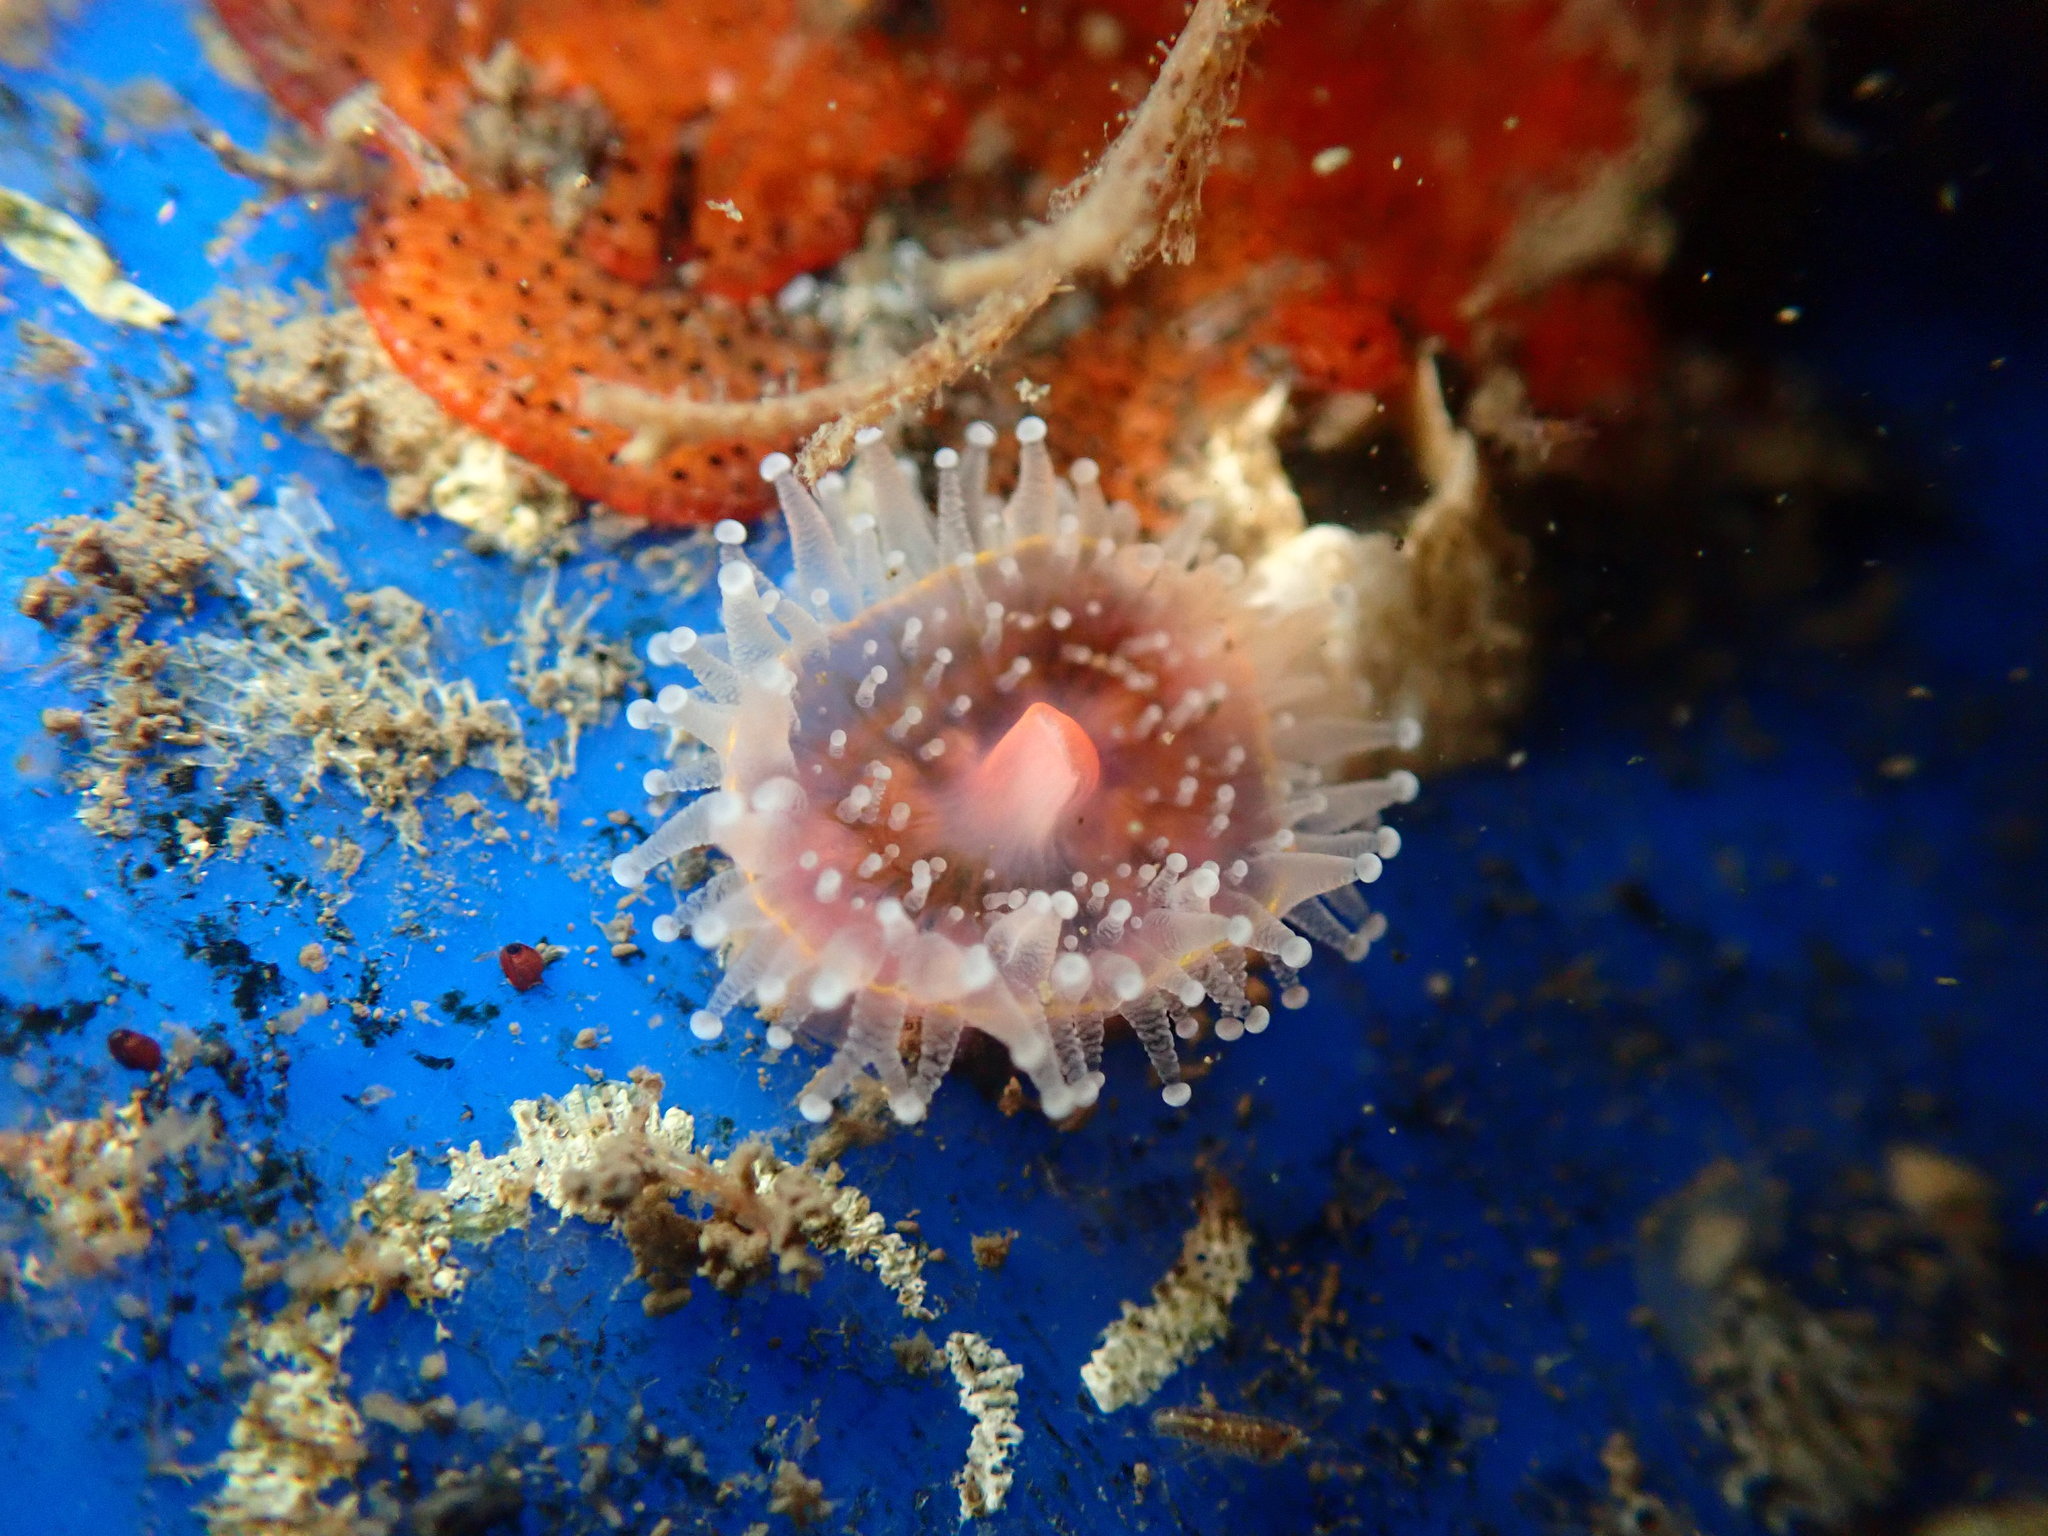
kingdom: Animalia
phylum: Cnidaria
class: Anthozoa
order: Corallimorpharia
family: Corallimorphidae
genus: Corynactis
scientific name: Corynactis californica
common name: Strawberry corallimorpharian
